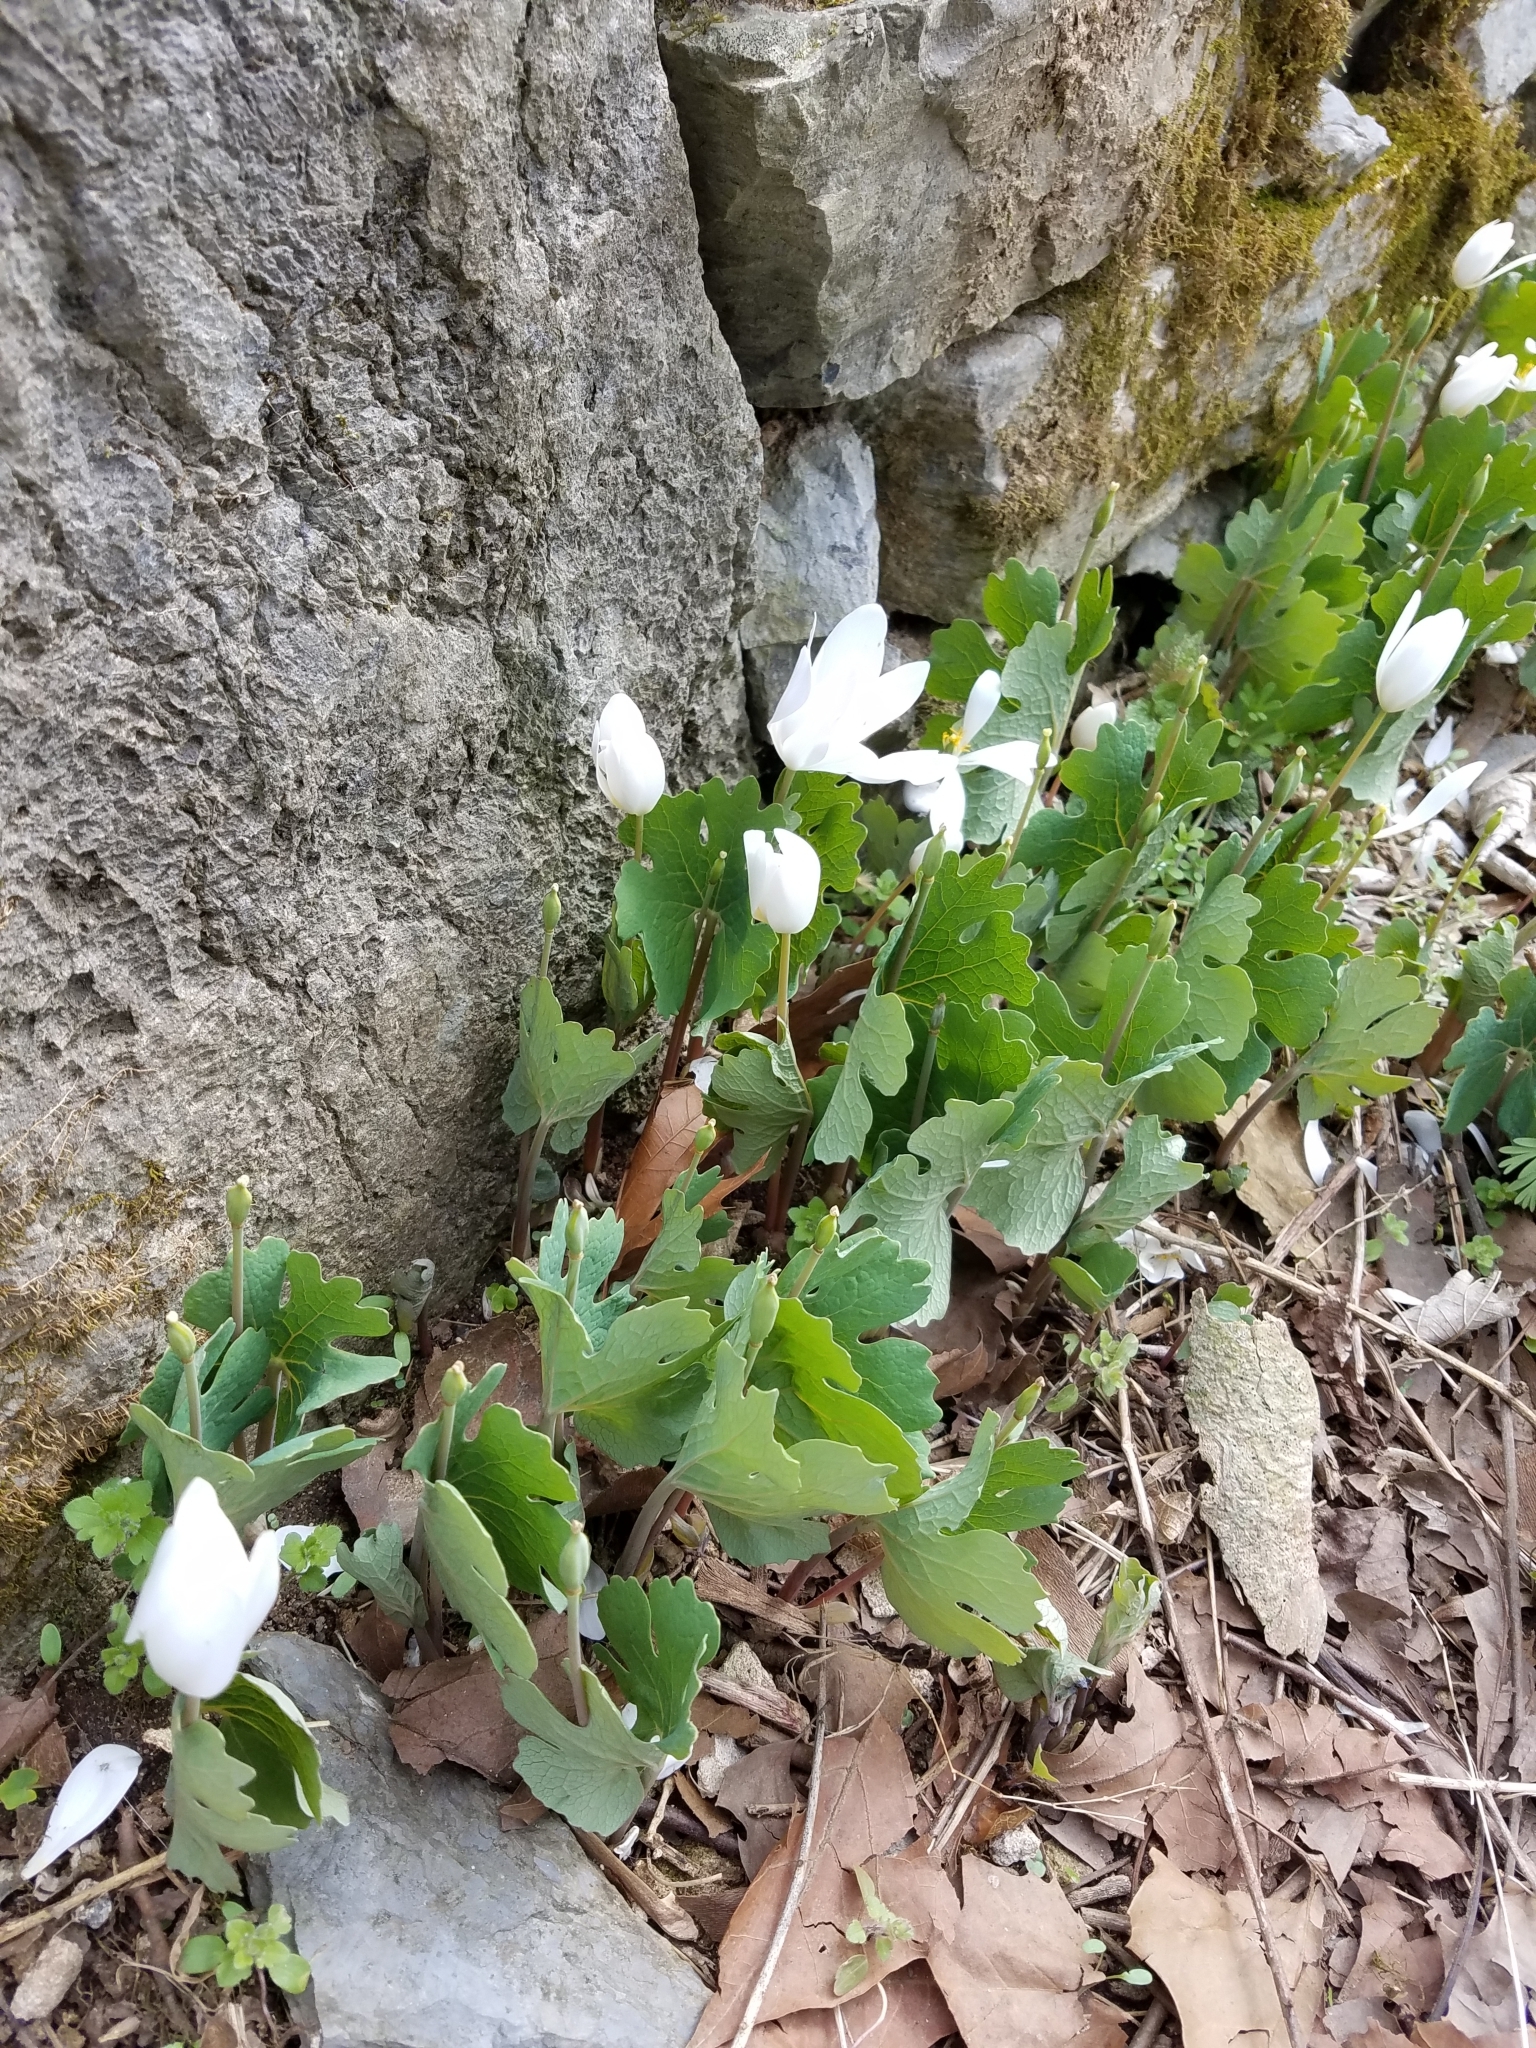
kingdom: Plantae
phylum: Tracheophyta
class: Magnoliopsida
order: Ranunculales
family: Papaveraceae
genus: Sanguinaria
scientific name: Sanguinaria canadensis
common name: Bloodroot
